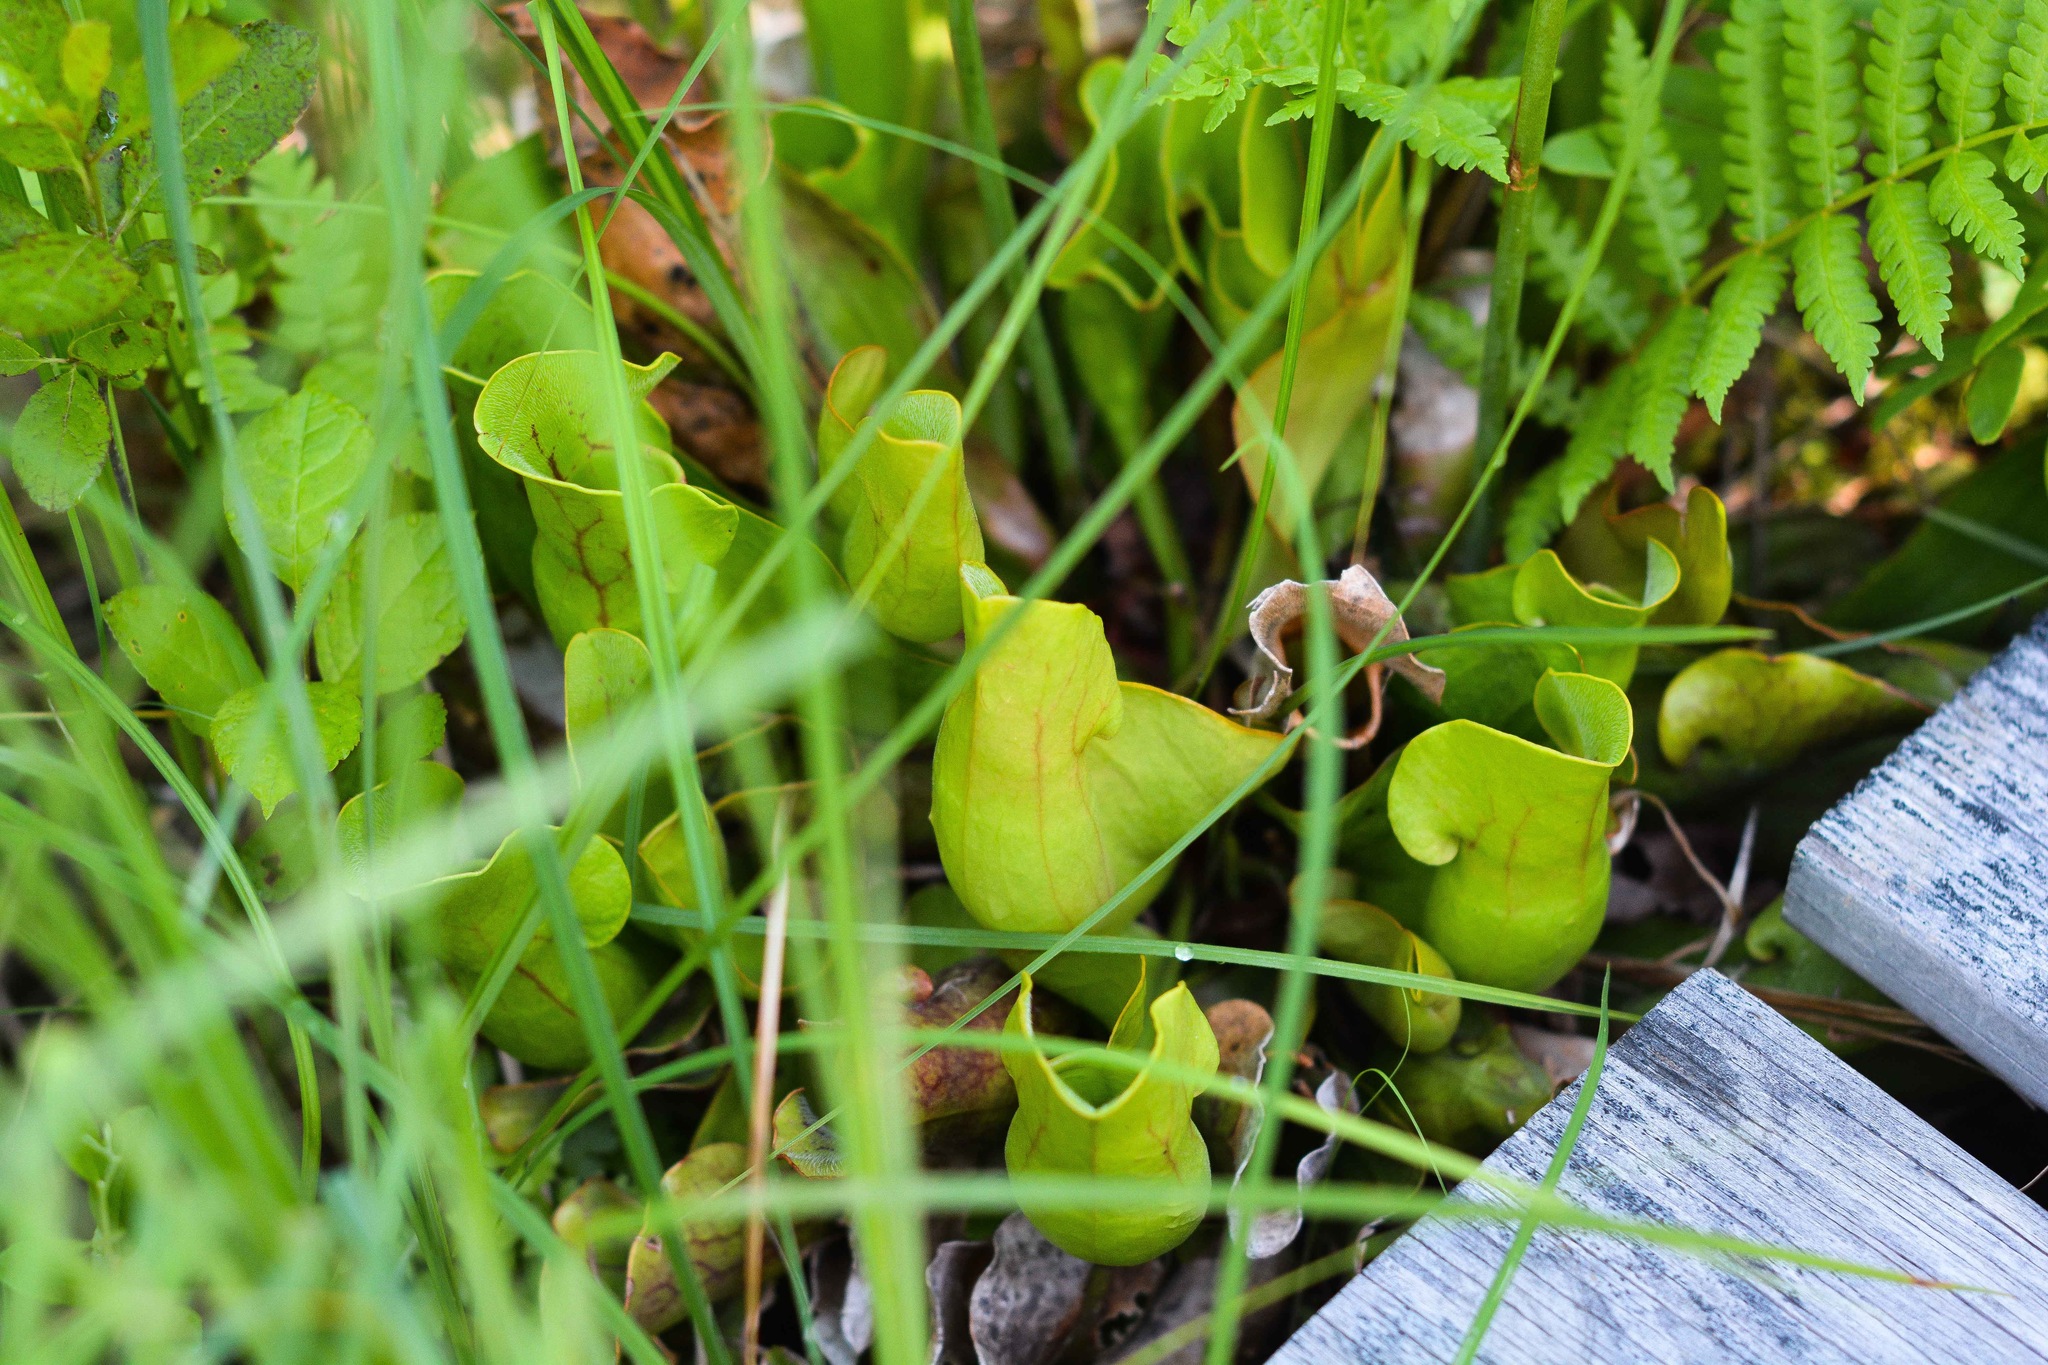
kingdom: Plantae
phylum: Tracheophyta
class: Magnoliopsida
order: Ericales
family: Sarraceniaceae
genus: Sarracenia
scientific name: Sarracenia purpurea
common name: Pitcherplant
